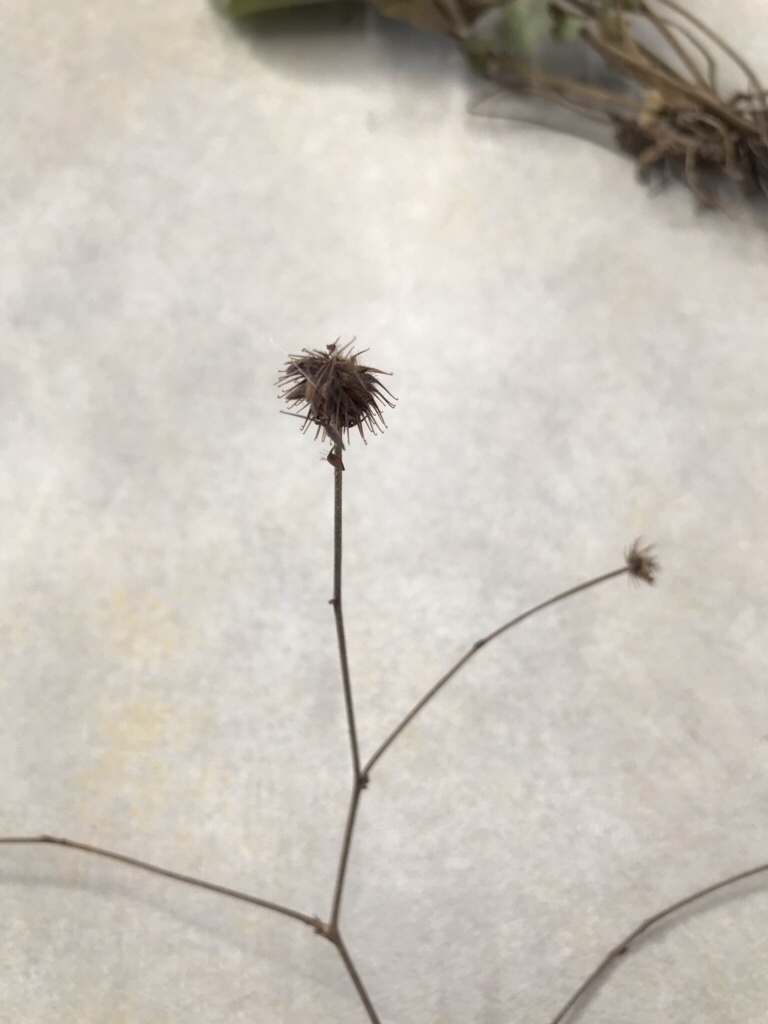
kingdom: Plantae
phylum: Tracheophyta
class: Magnoliopsida
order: Rosales
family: Rosaceae
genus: Geum
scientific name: Geum canadense
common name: White avens
